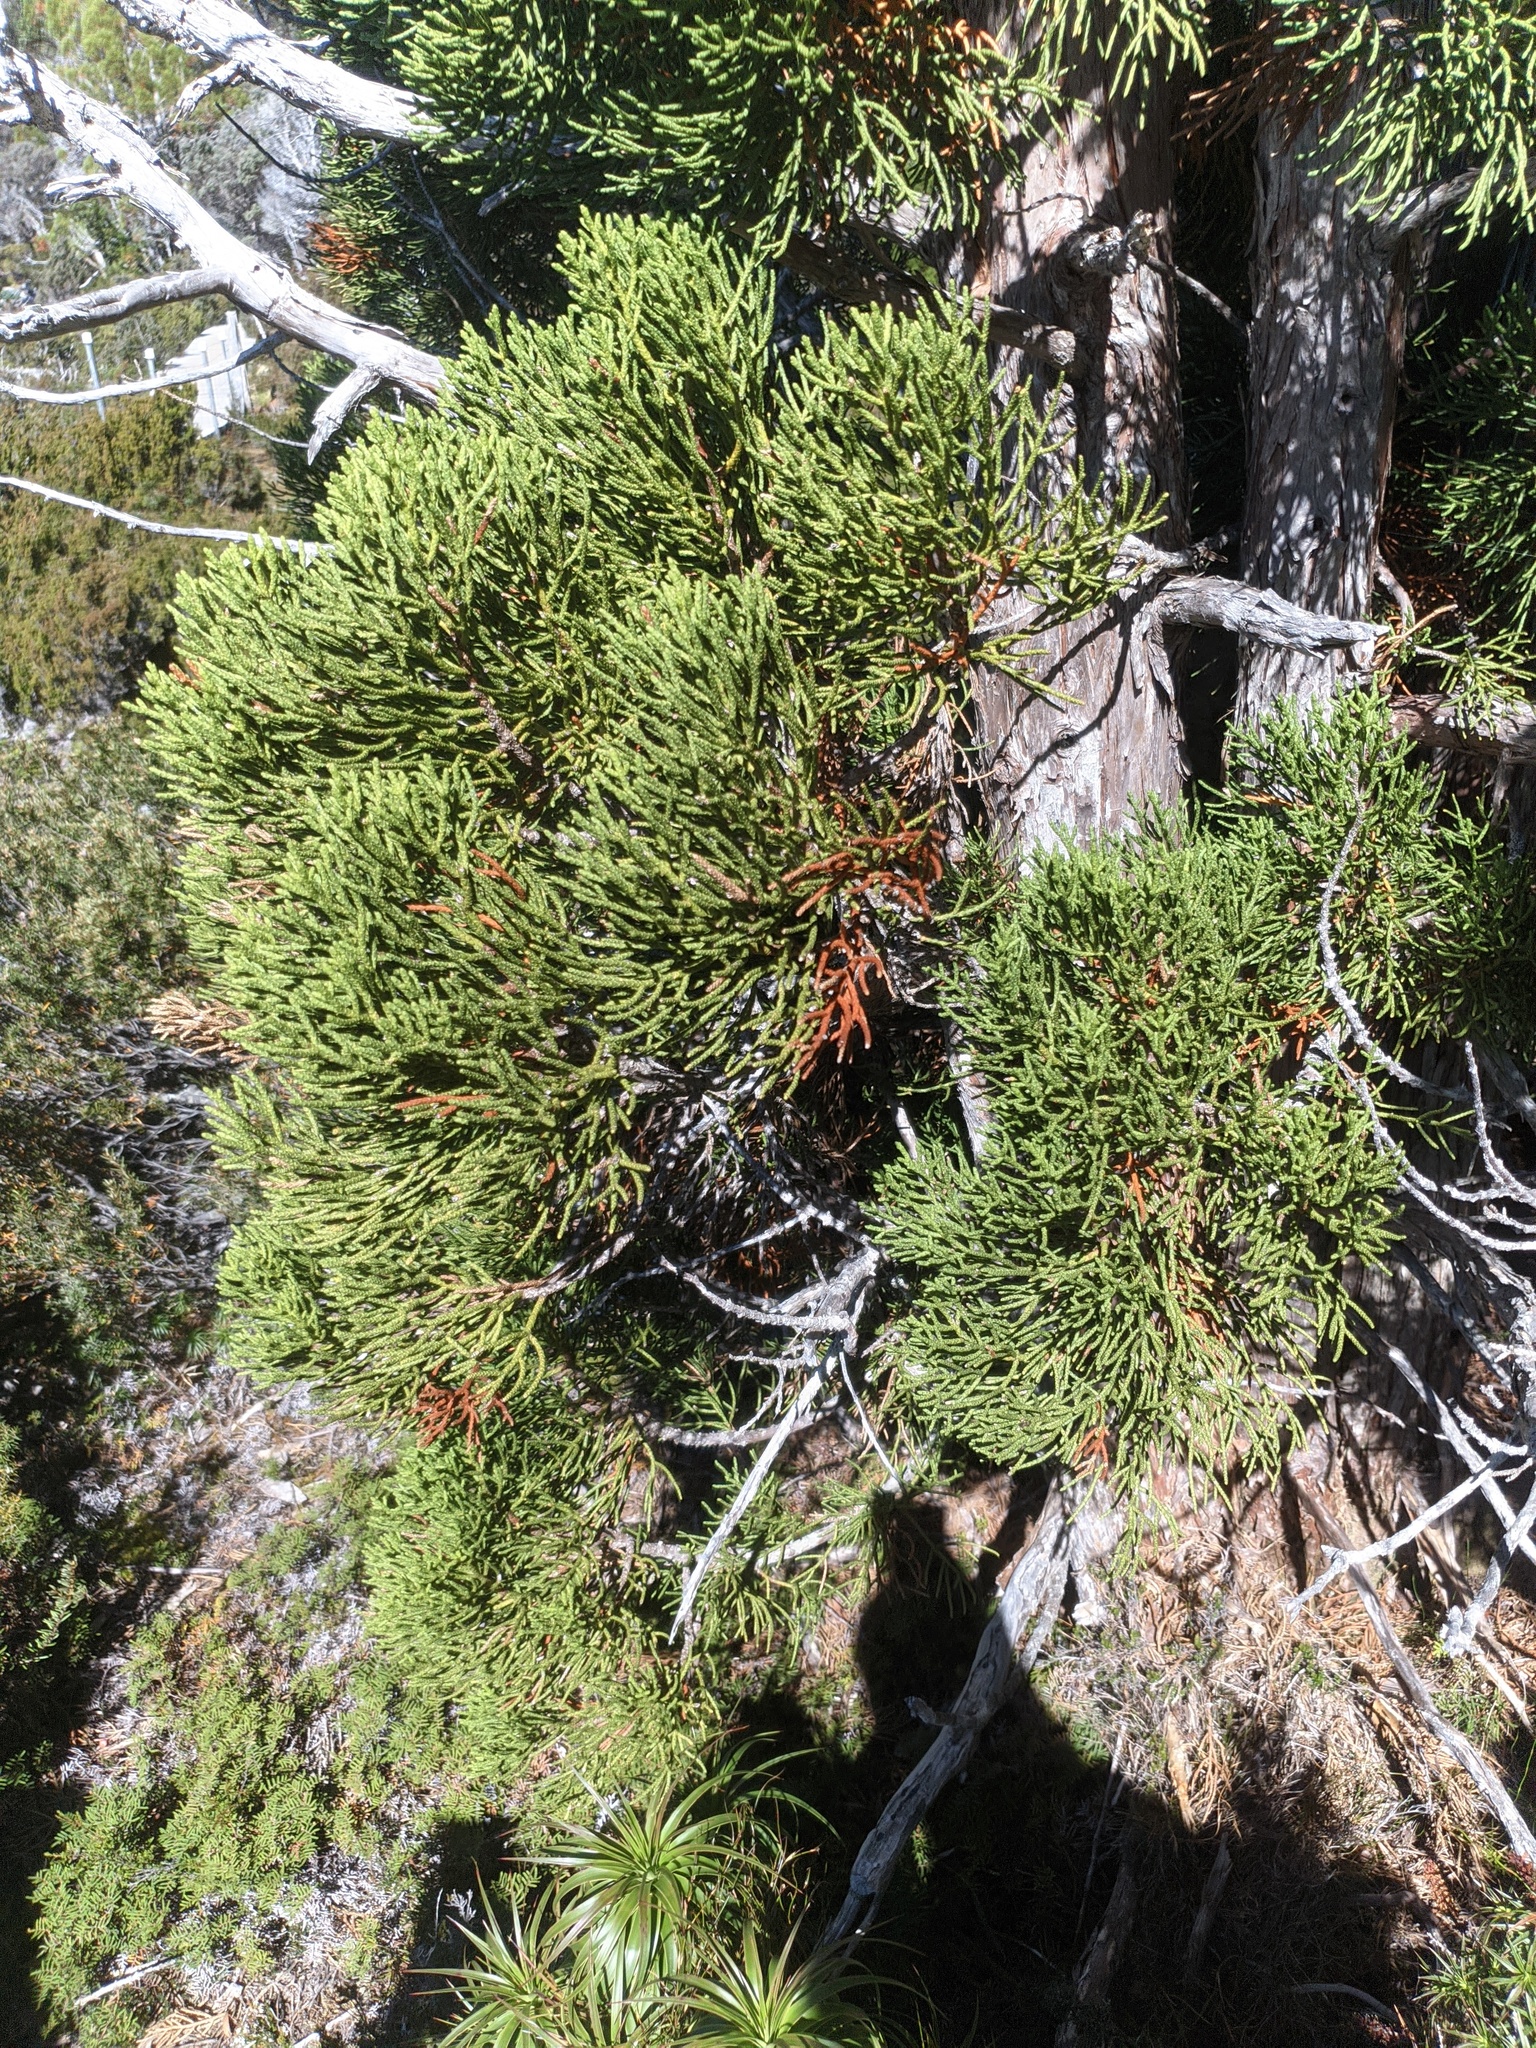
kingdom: Plantae
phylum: Tracheophyta
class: Pinopsida
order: Pinales
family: Cupressaceae
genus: Athrotaxis
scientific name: Athrotaxis cupressoides
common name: Tasmanian pencil pine
